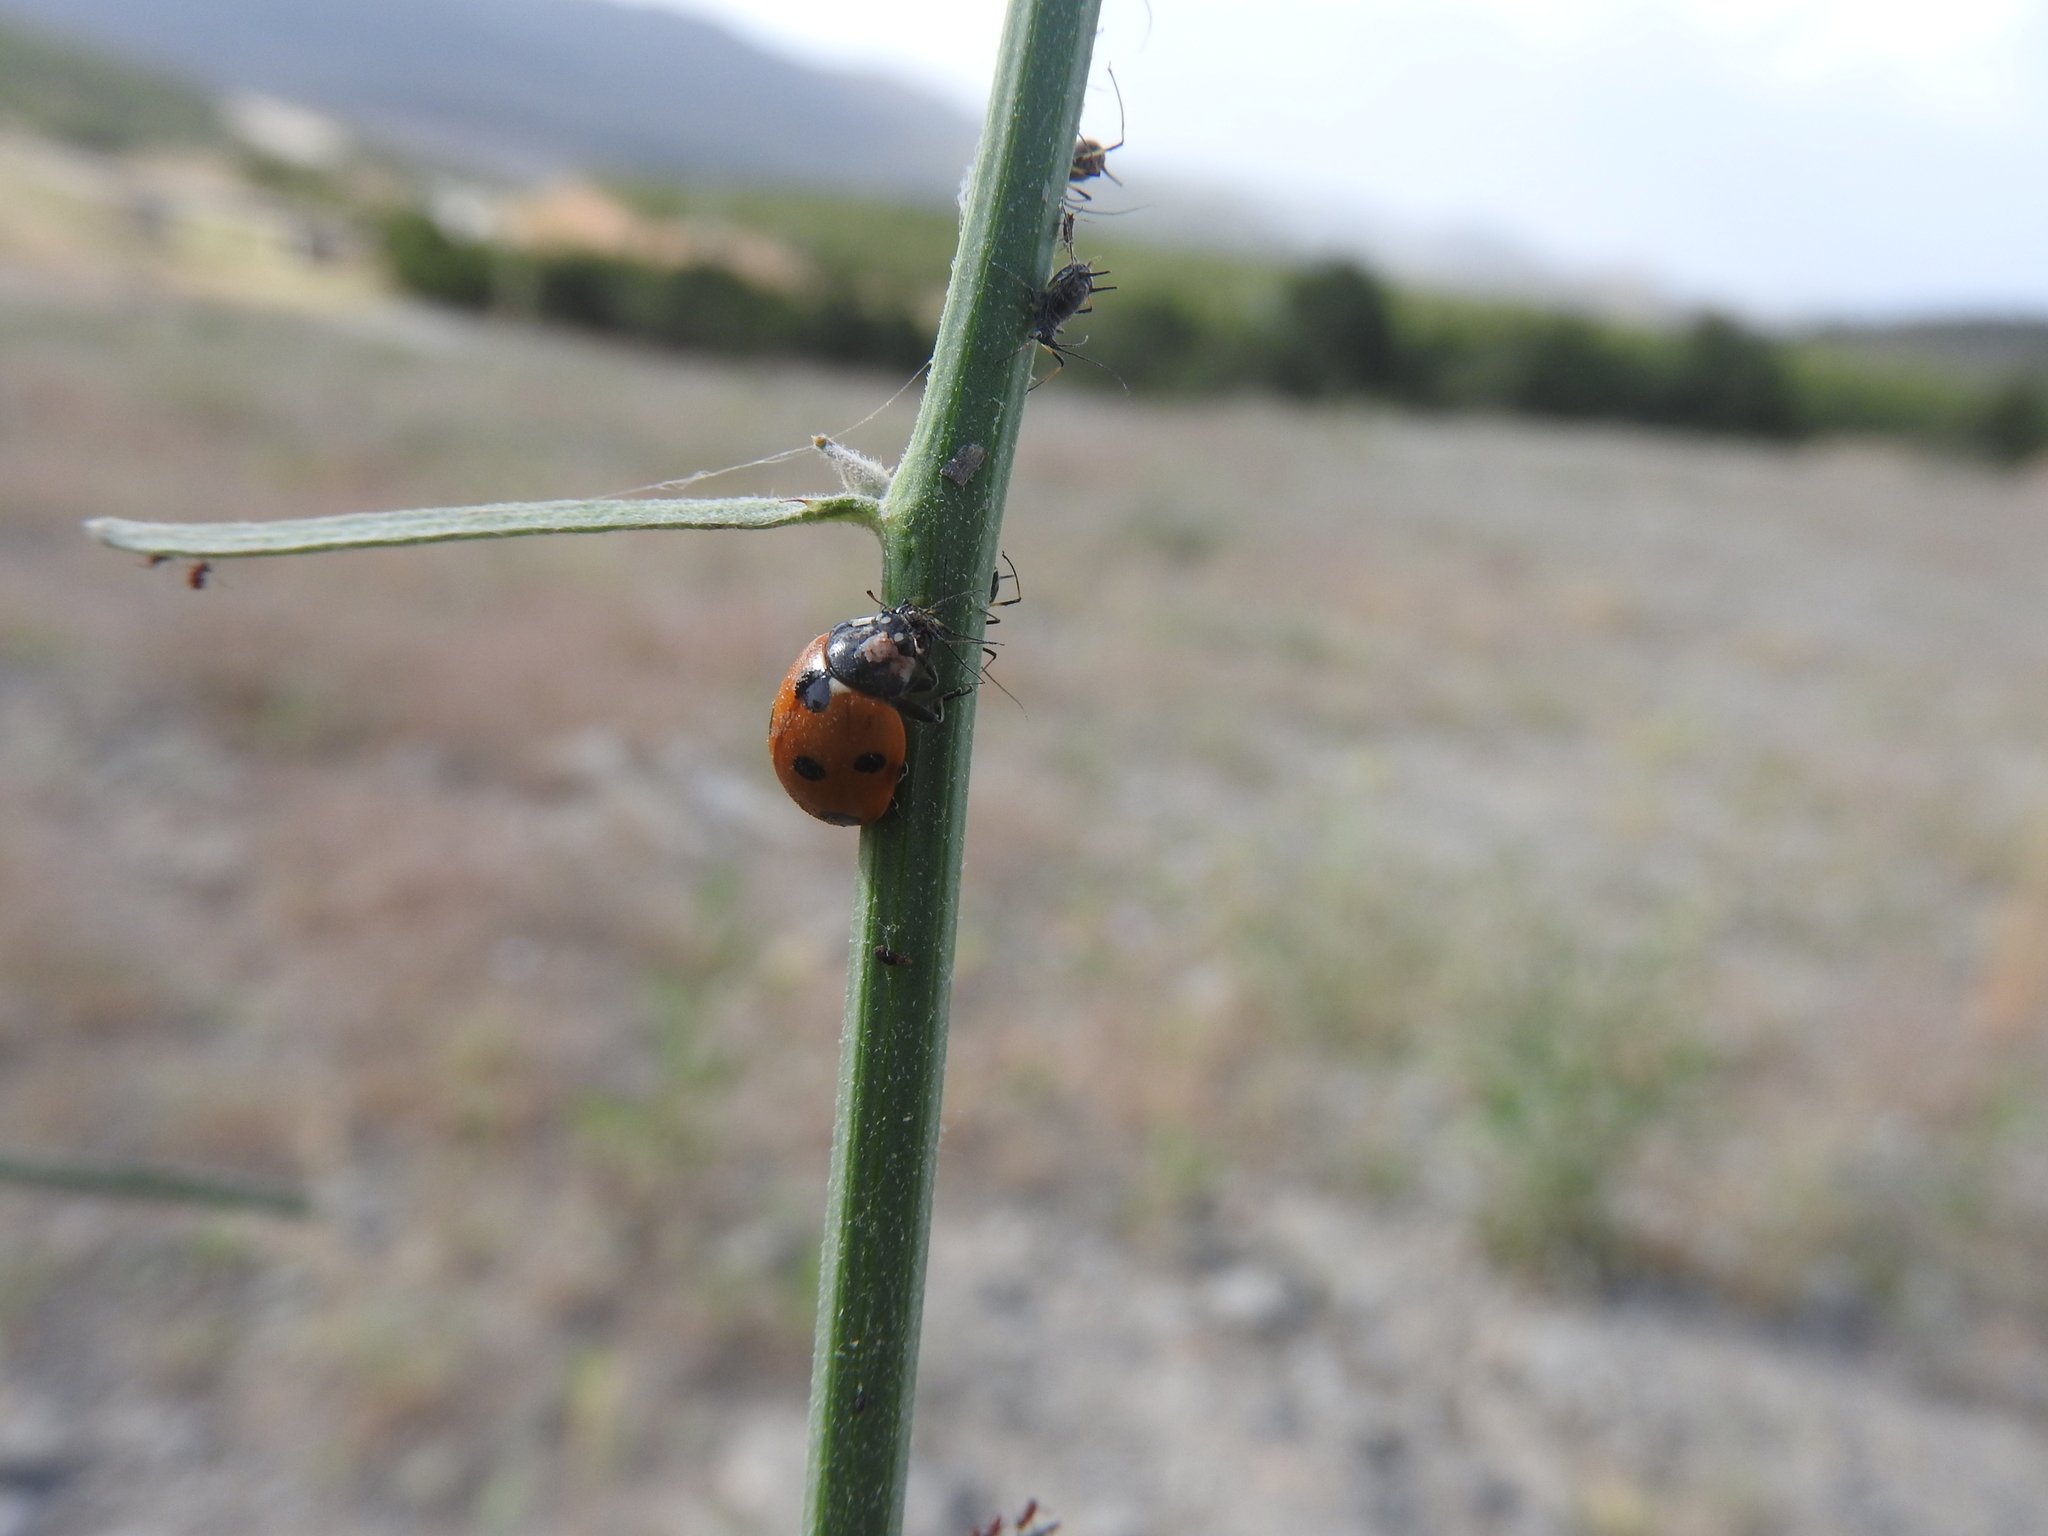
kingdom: Animalia
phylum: Arthropoda
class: Insecta
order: Coleoptera
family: Coccinellidae
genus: Coccinella
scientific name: Coccinella algerica
